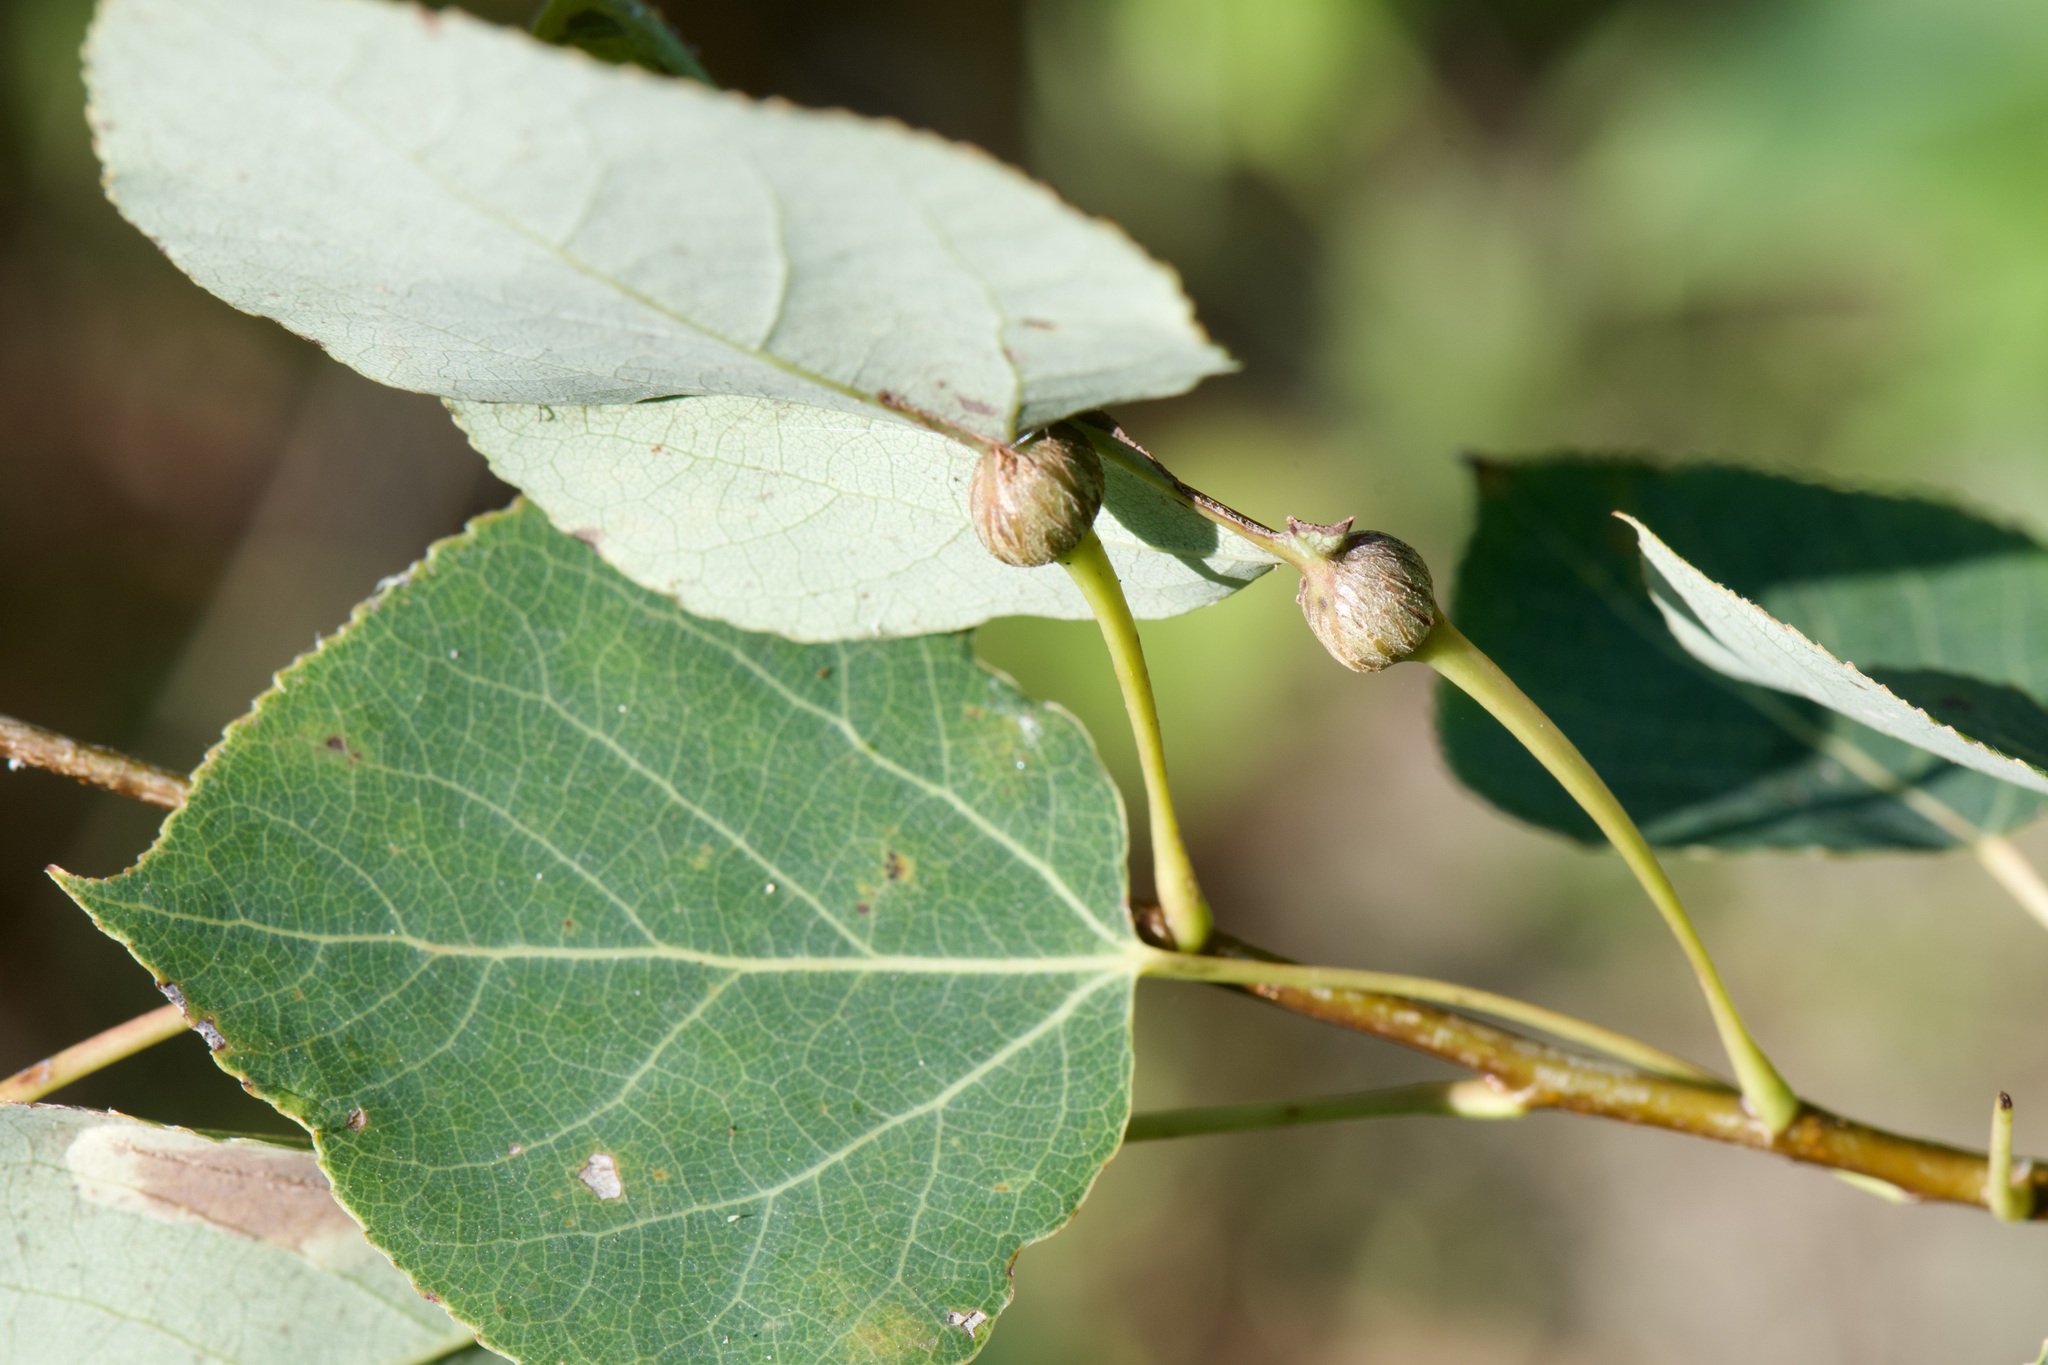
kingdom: Animalia
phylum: Arthropoda
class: Insecta
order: Lepidoptera
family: Nepticulidae
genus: Ectoedemia
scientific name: Ectoedemia populella
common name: Aspen petiole gall moth
